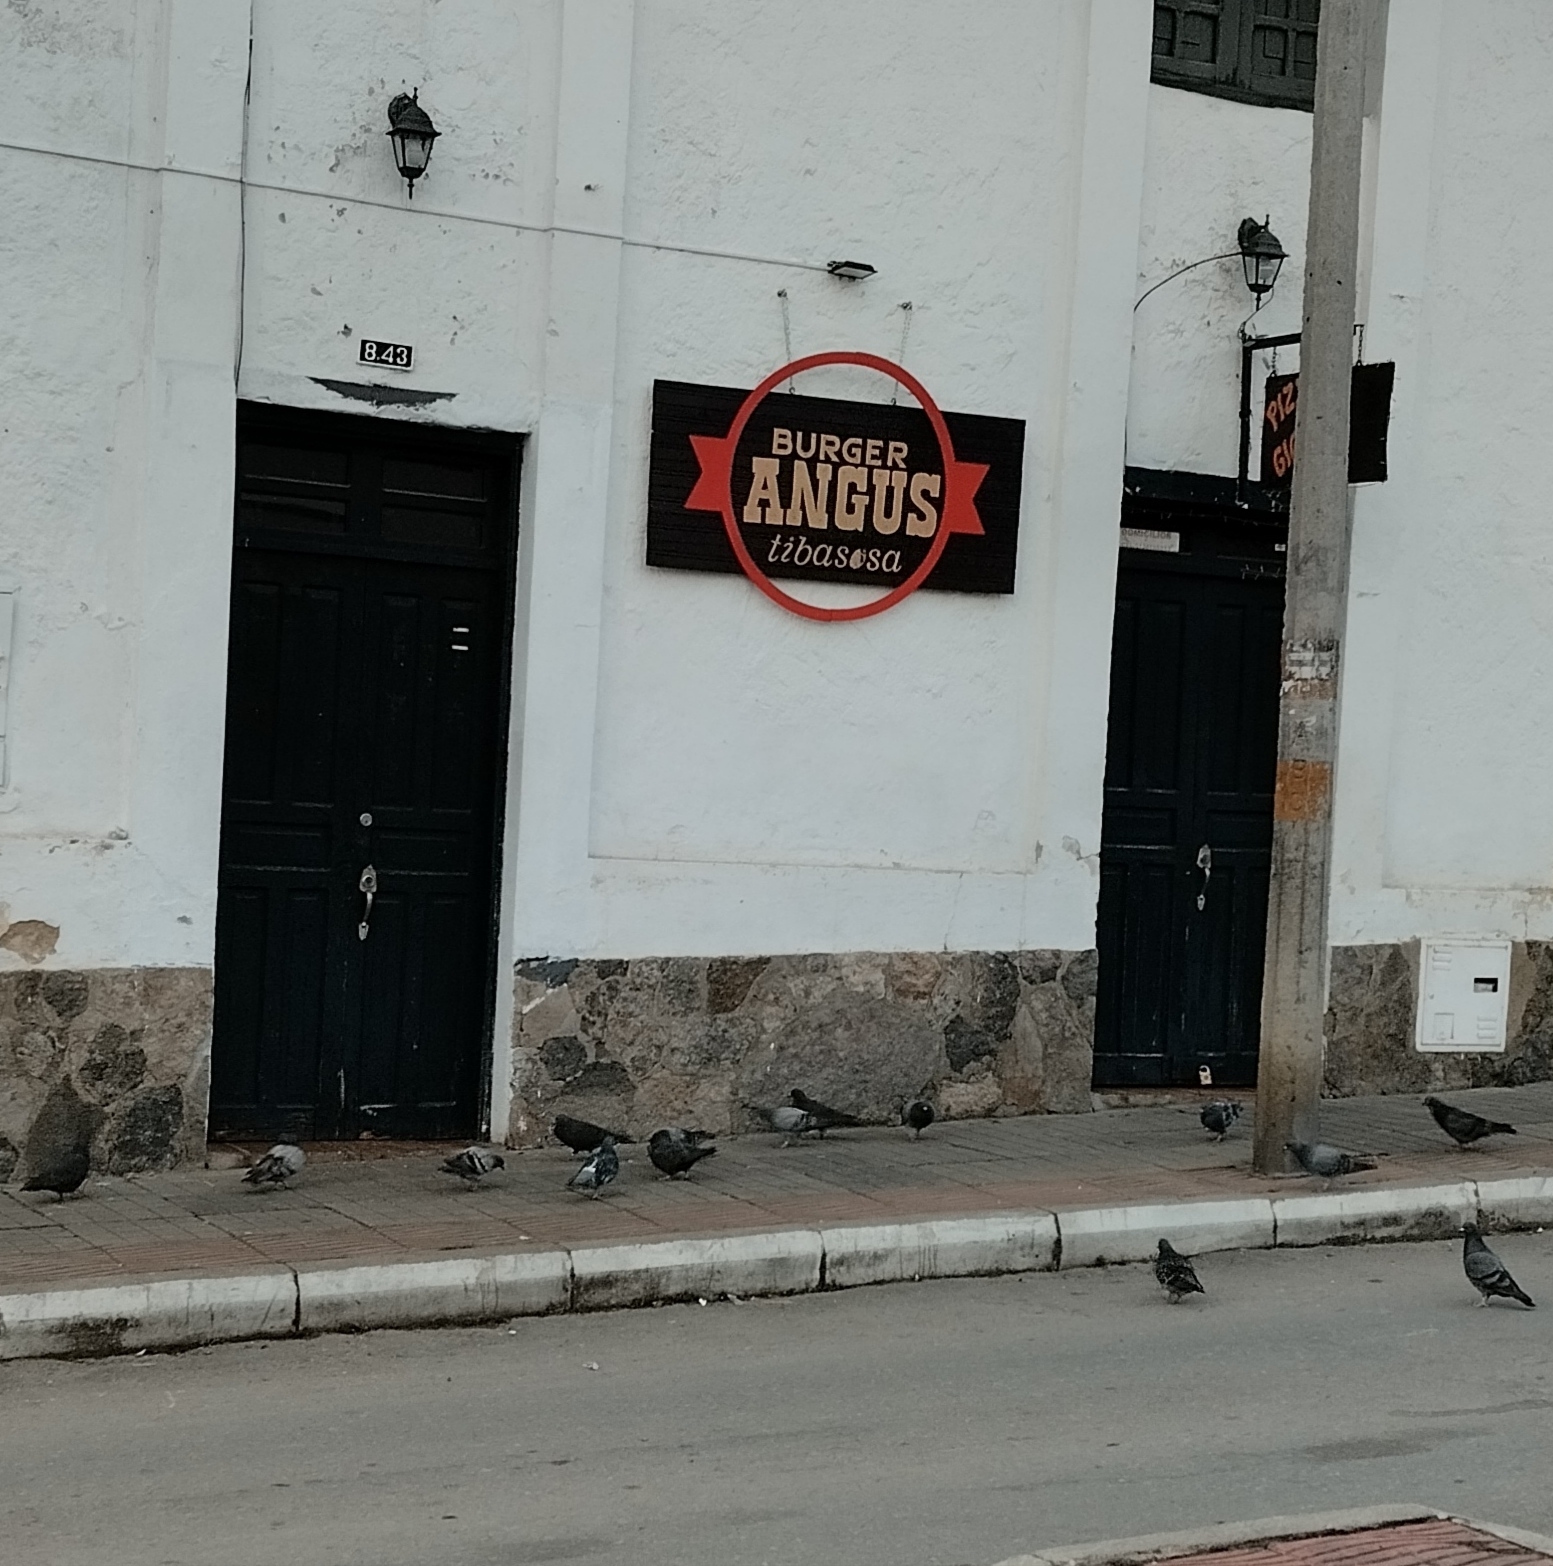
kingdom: Animalia
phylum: Chordata
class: Aves
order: Columbiformes
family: Columbidae
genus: Columba
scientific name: Columba livia
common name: Rock pigeon
